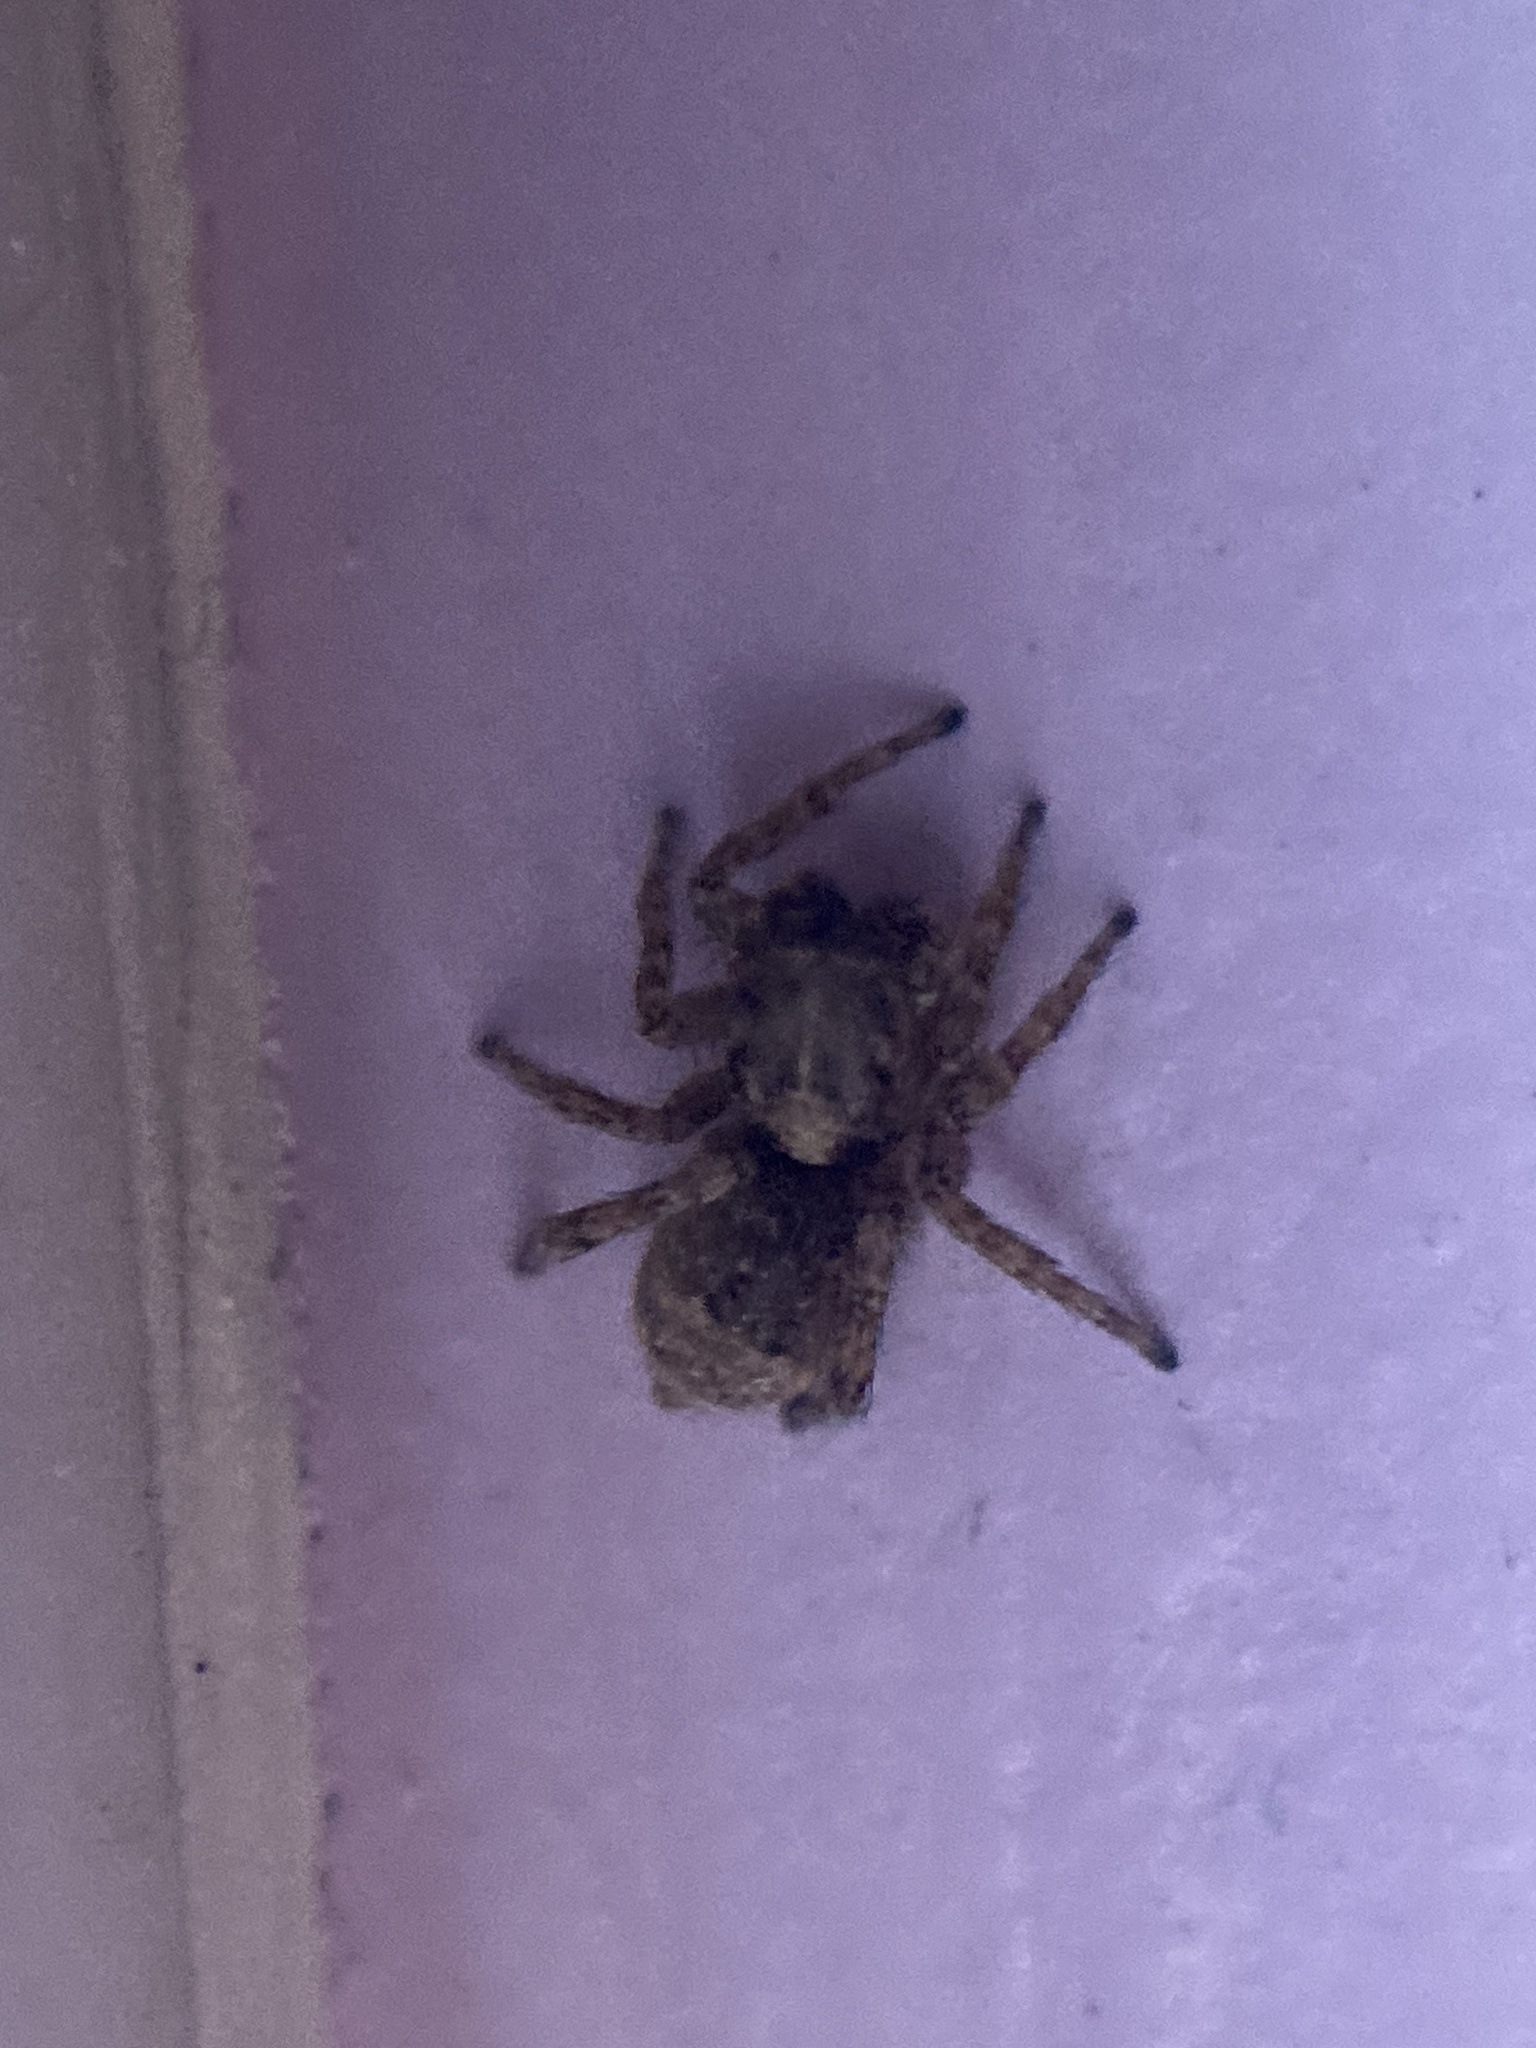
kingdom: Animalia
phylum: Arthropoda
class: Arachnida
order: Araneae
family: Salticidae
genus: Attulus
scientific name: Attulus fasciger
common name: Asiatic wall jumping spider
